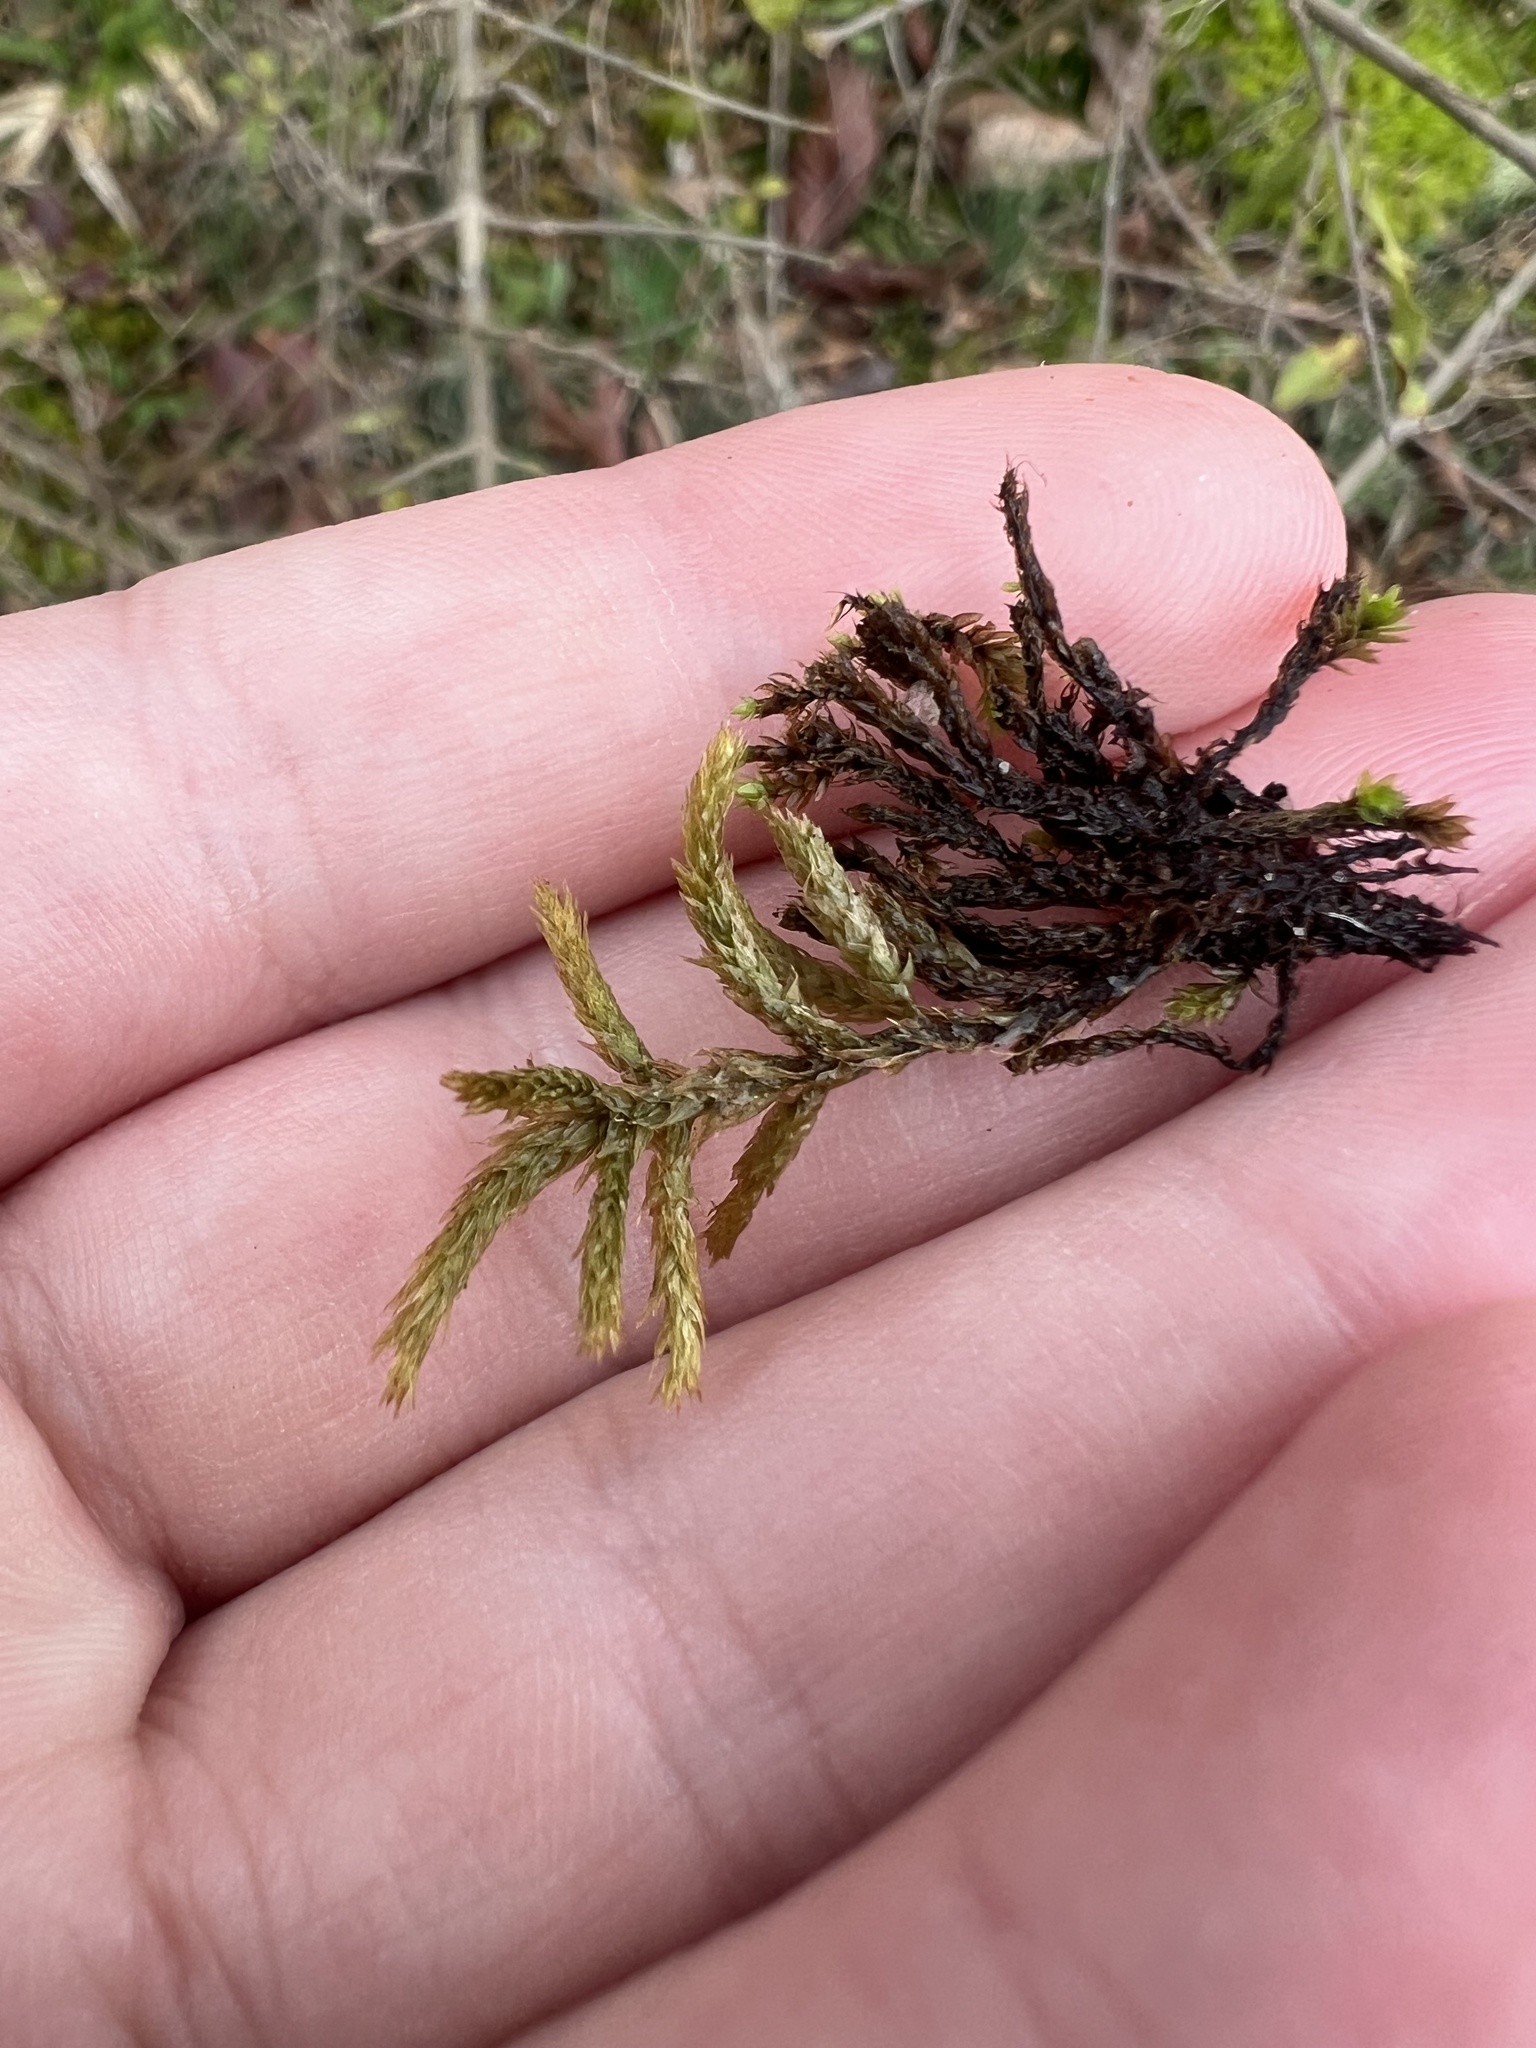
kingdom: Plantae
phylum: Bryophyta
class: Bryopsida
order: Hypnales
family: Climaciaceae
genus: Climacium
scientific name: Climacium americanum
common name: American tree moss
